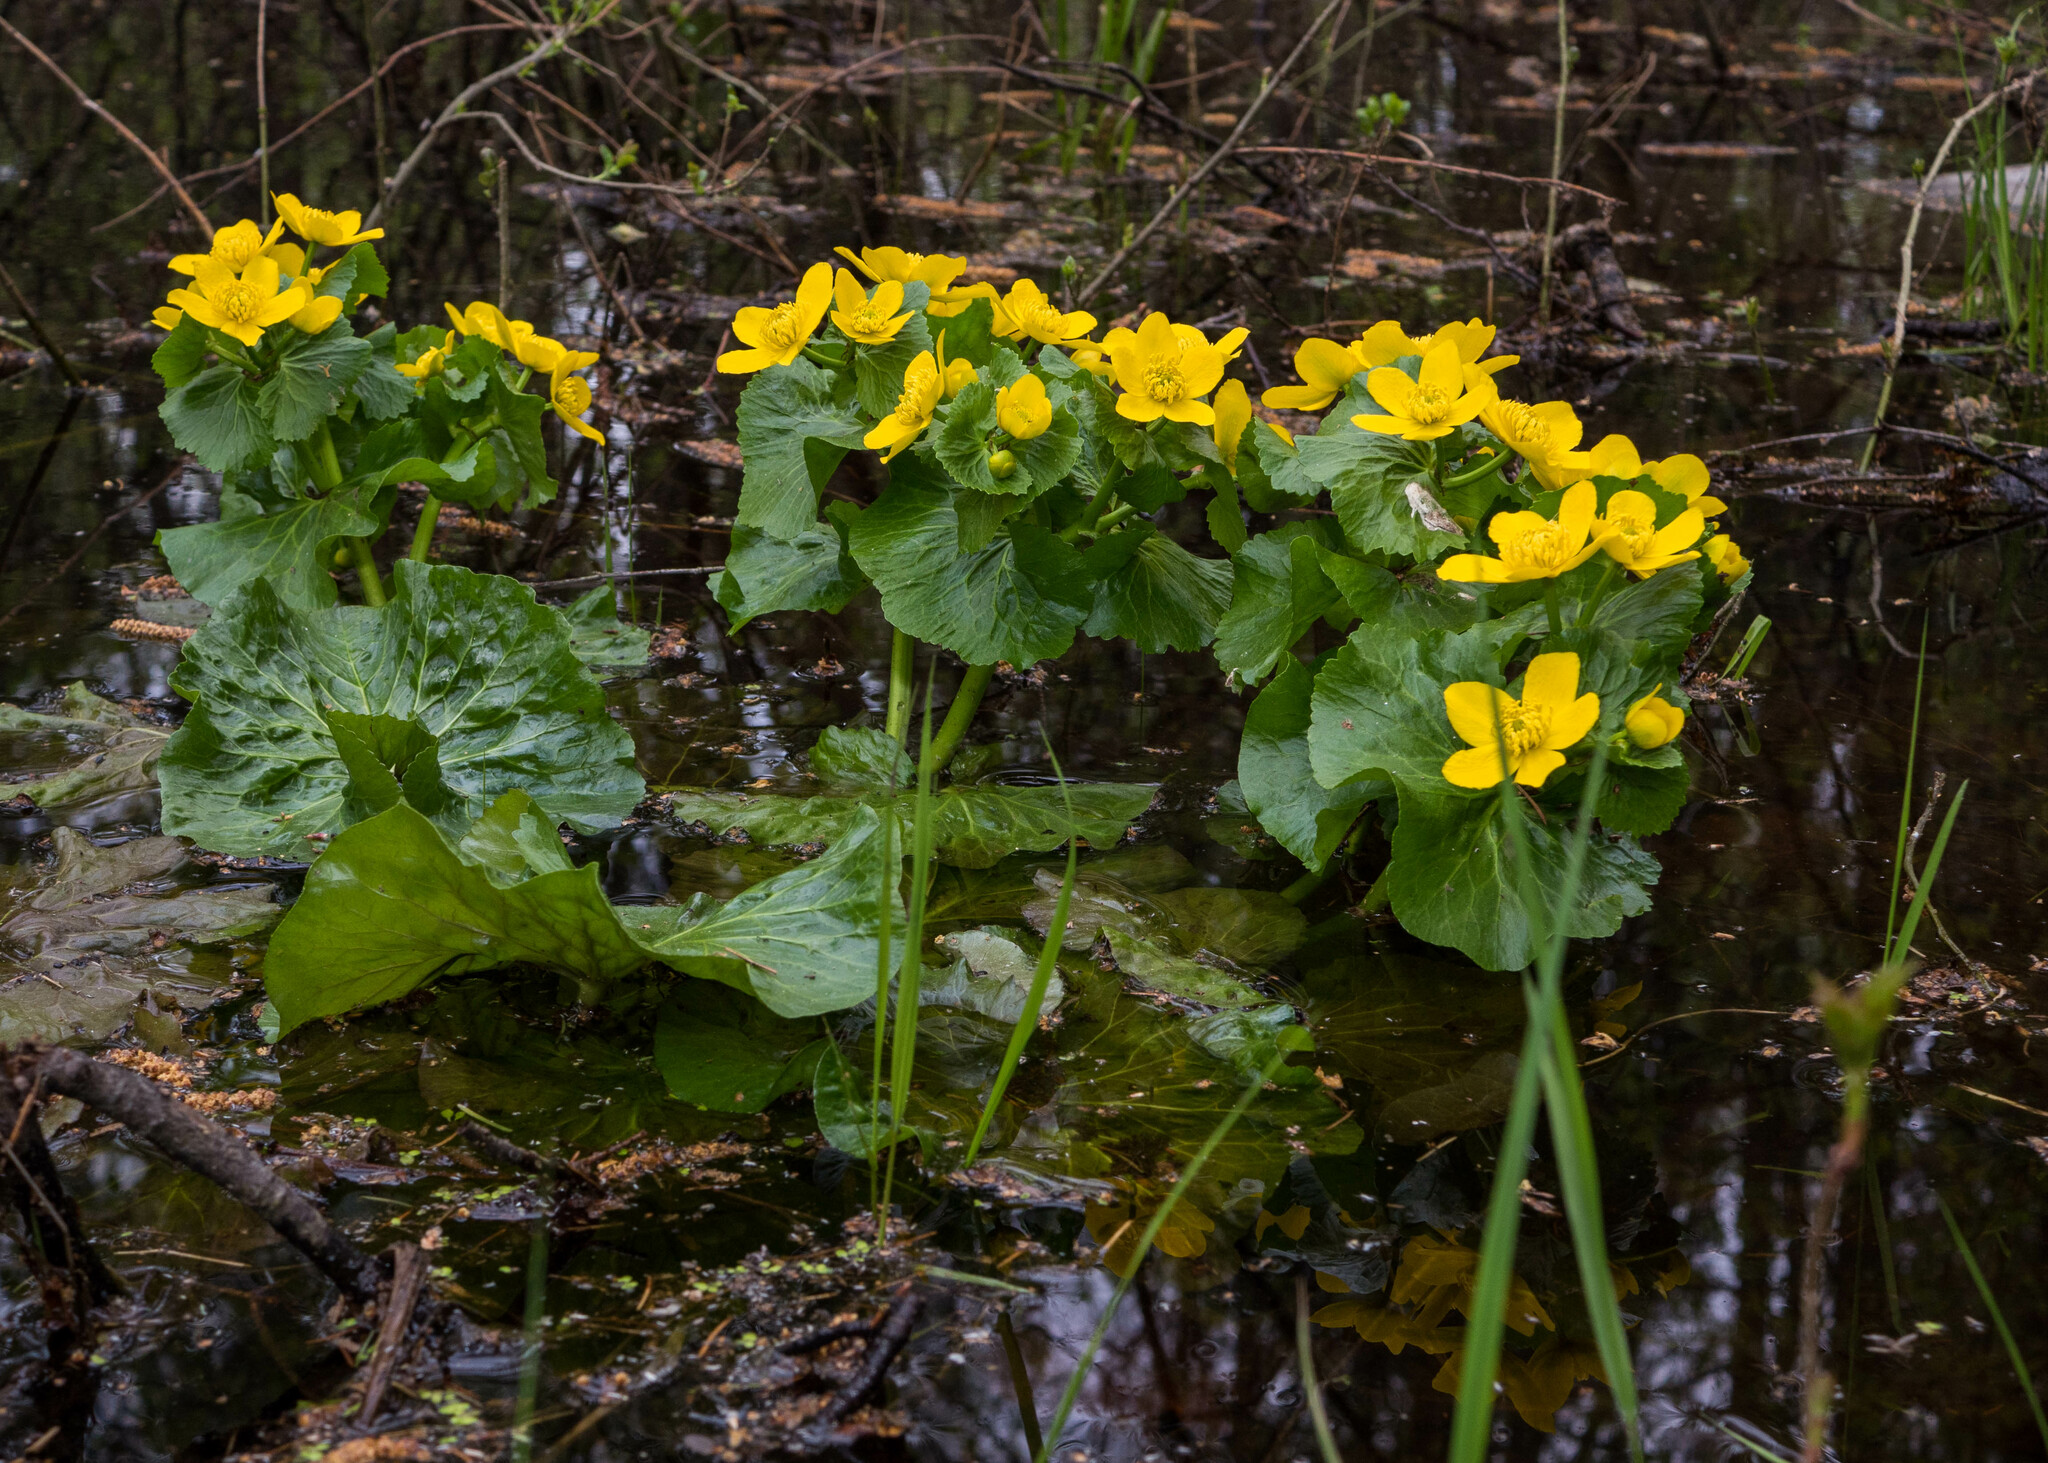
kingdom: Plantae
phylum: Tracheophyta
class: Magnoliopsida
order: Ranunculales
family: Ranunculaceae
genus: Caltha
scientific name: Caltha palustris
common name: Marsh marigold
